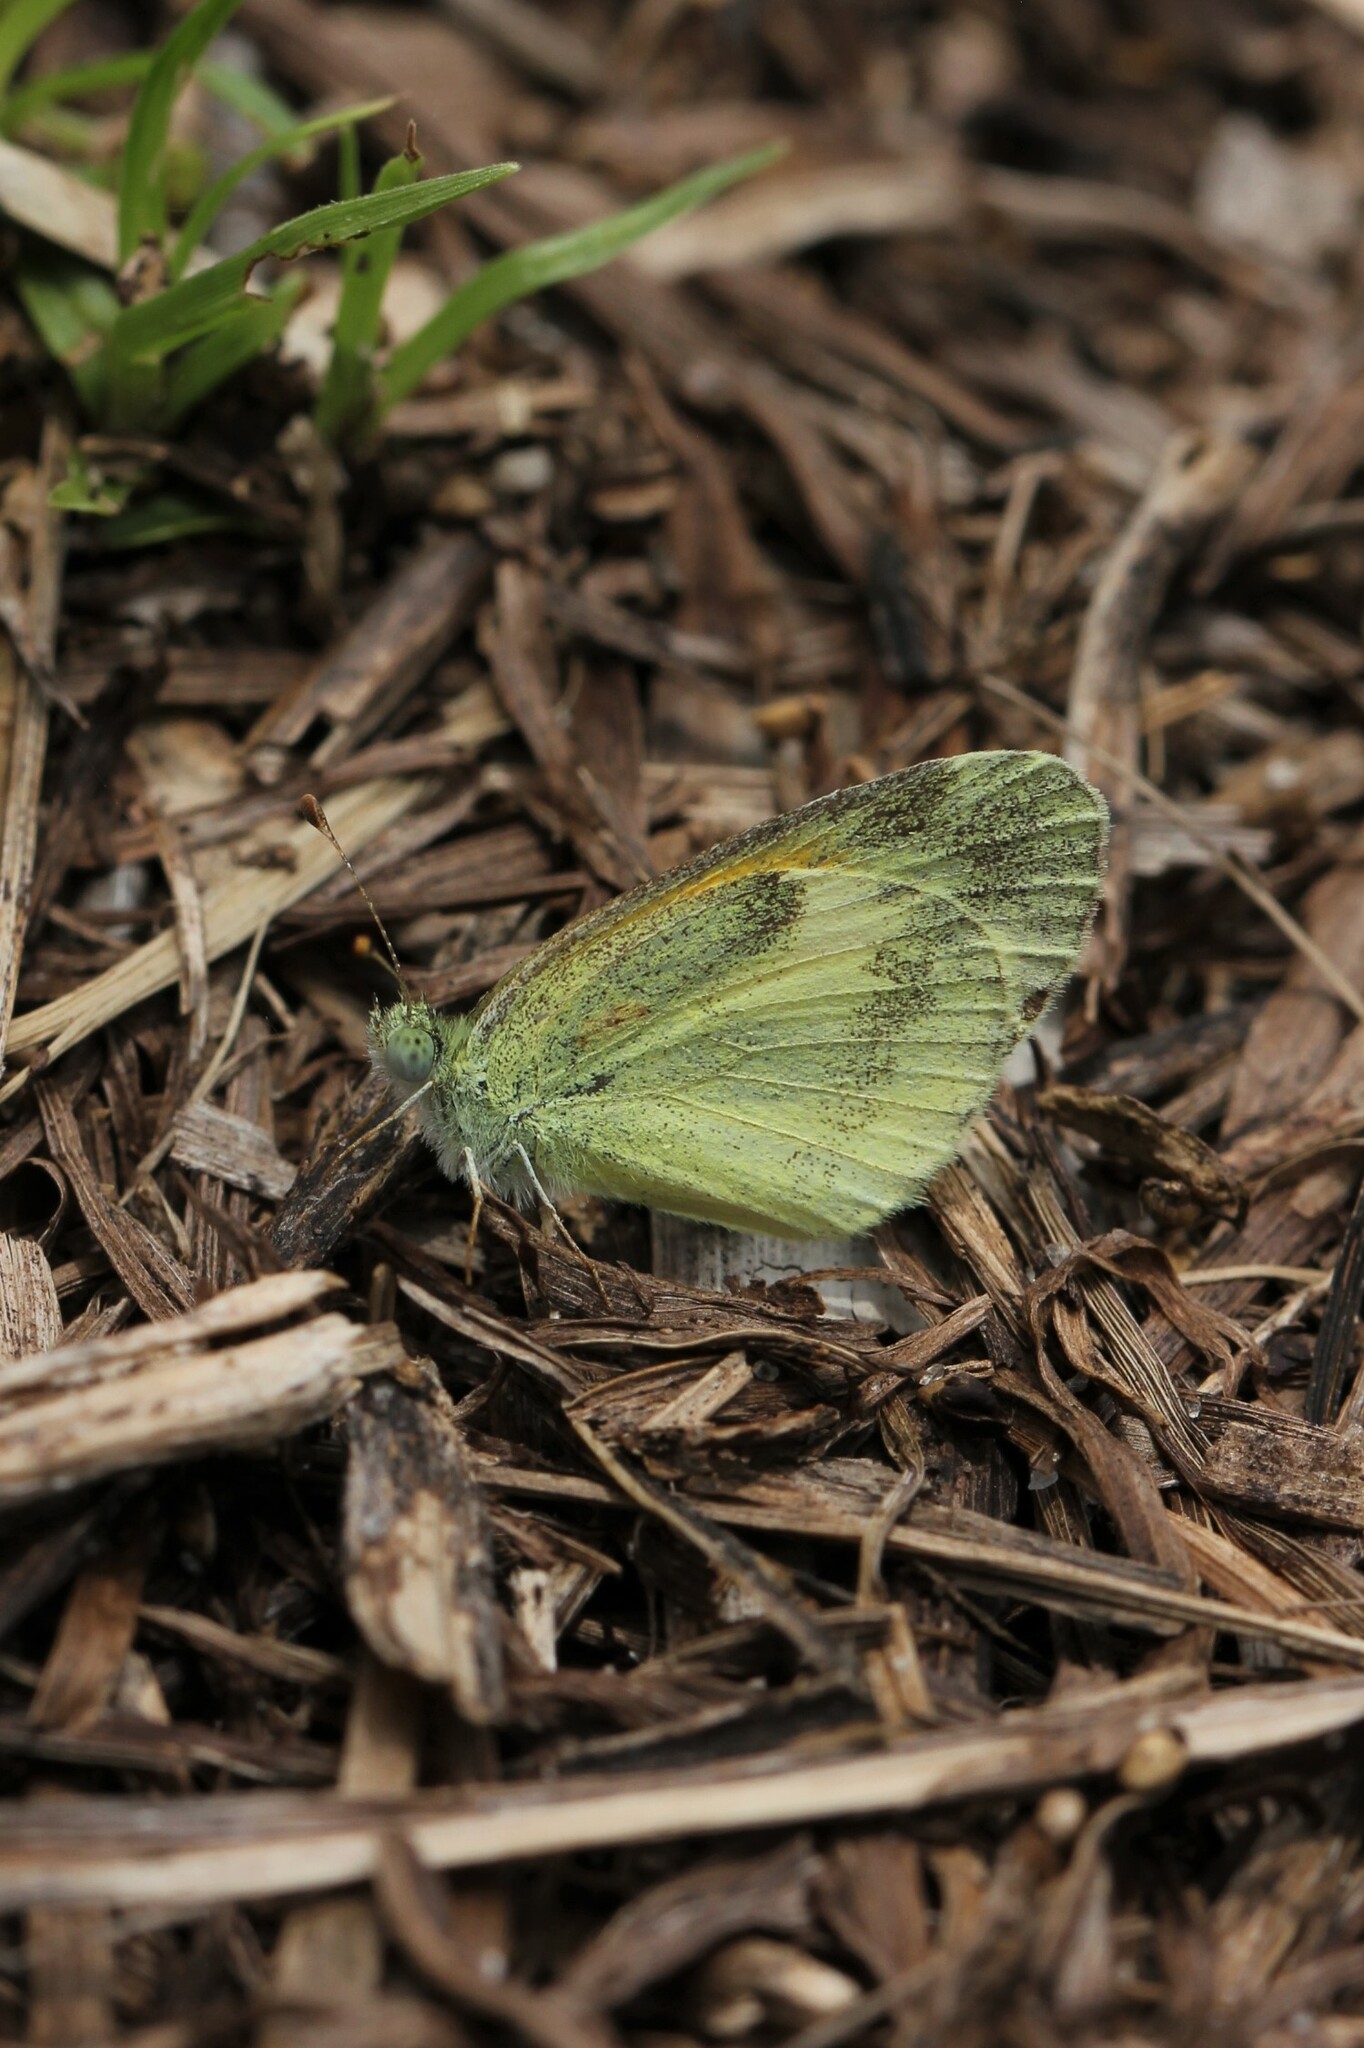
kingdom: Animalia
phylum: Arthropoda
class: Insecta
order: Lepidoptera
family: Pieridae
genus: Nathalis
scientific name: Nathalis iole
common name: Dainty sulphur
